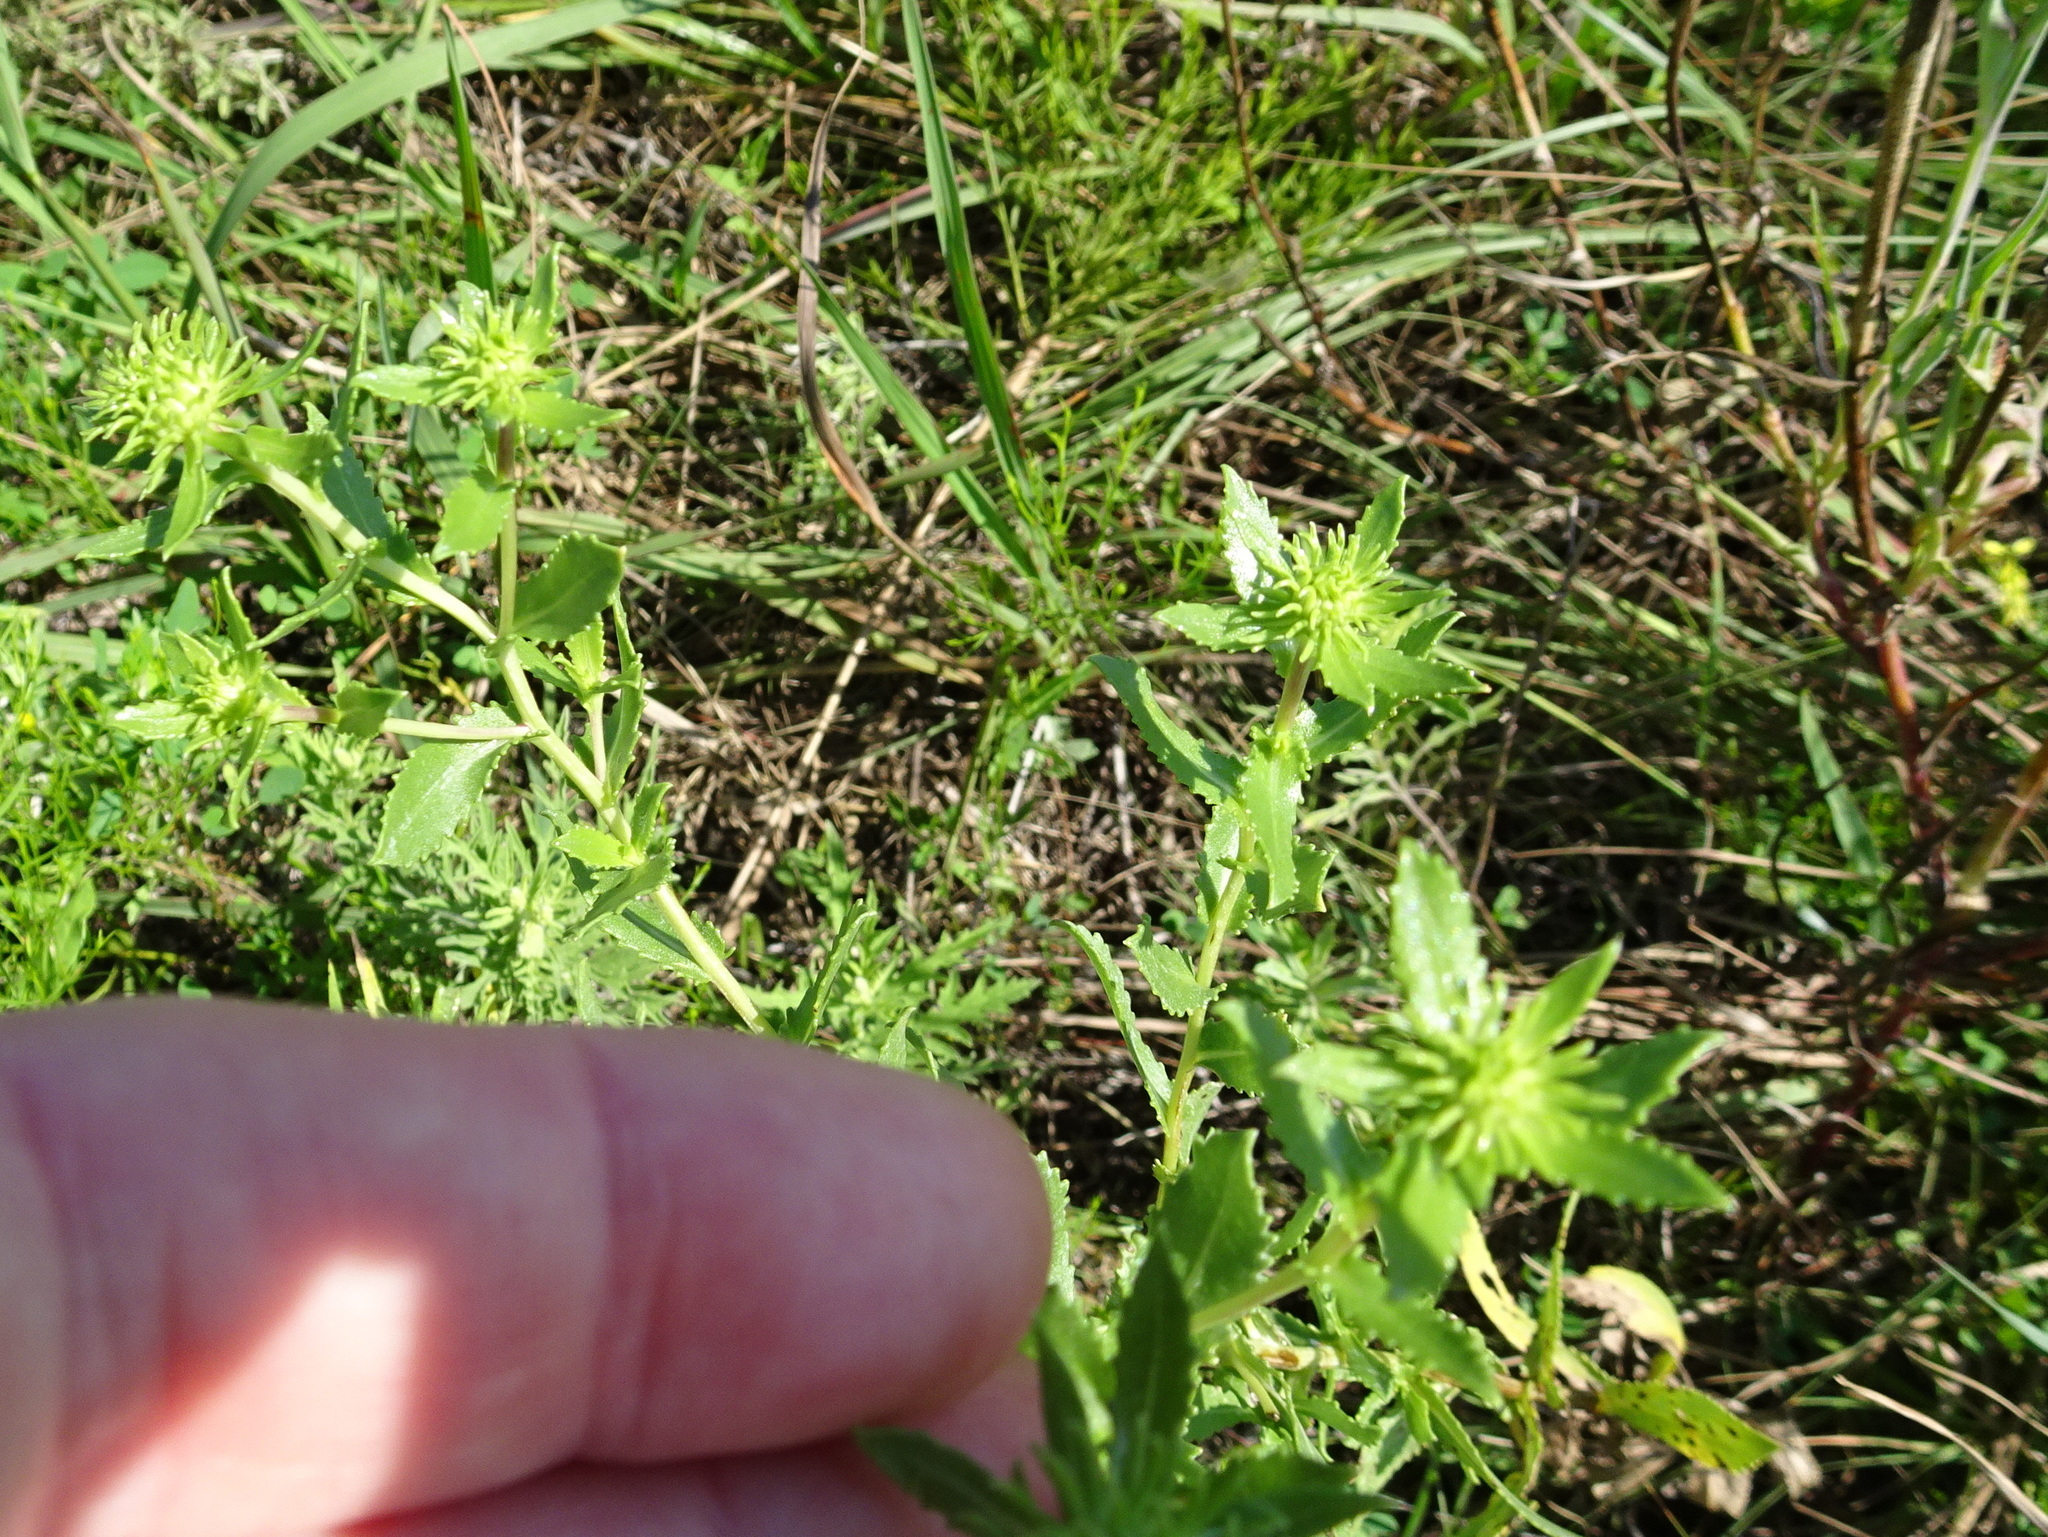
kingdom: Plantae
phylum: Tracheophyta
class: Magnoliopsida
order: Asterales
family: Asteraceae
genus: Grindelia
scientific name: Grindelia squarrosa
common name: Curly-cup gumweed
